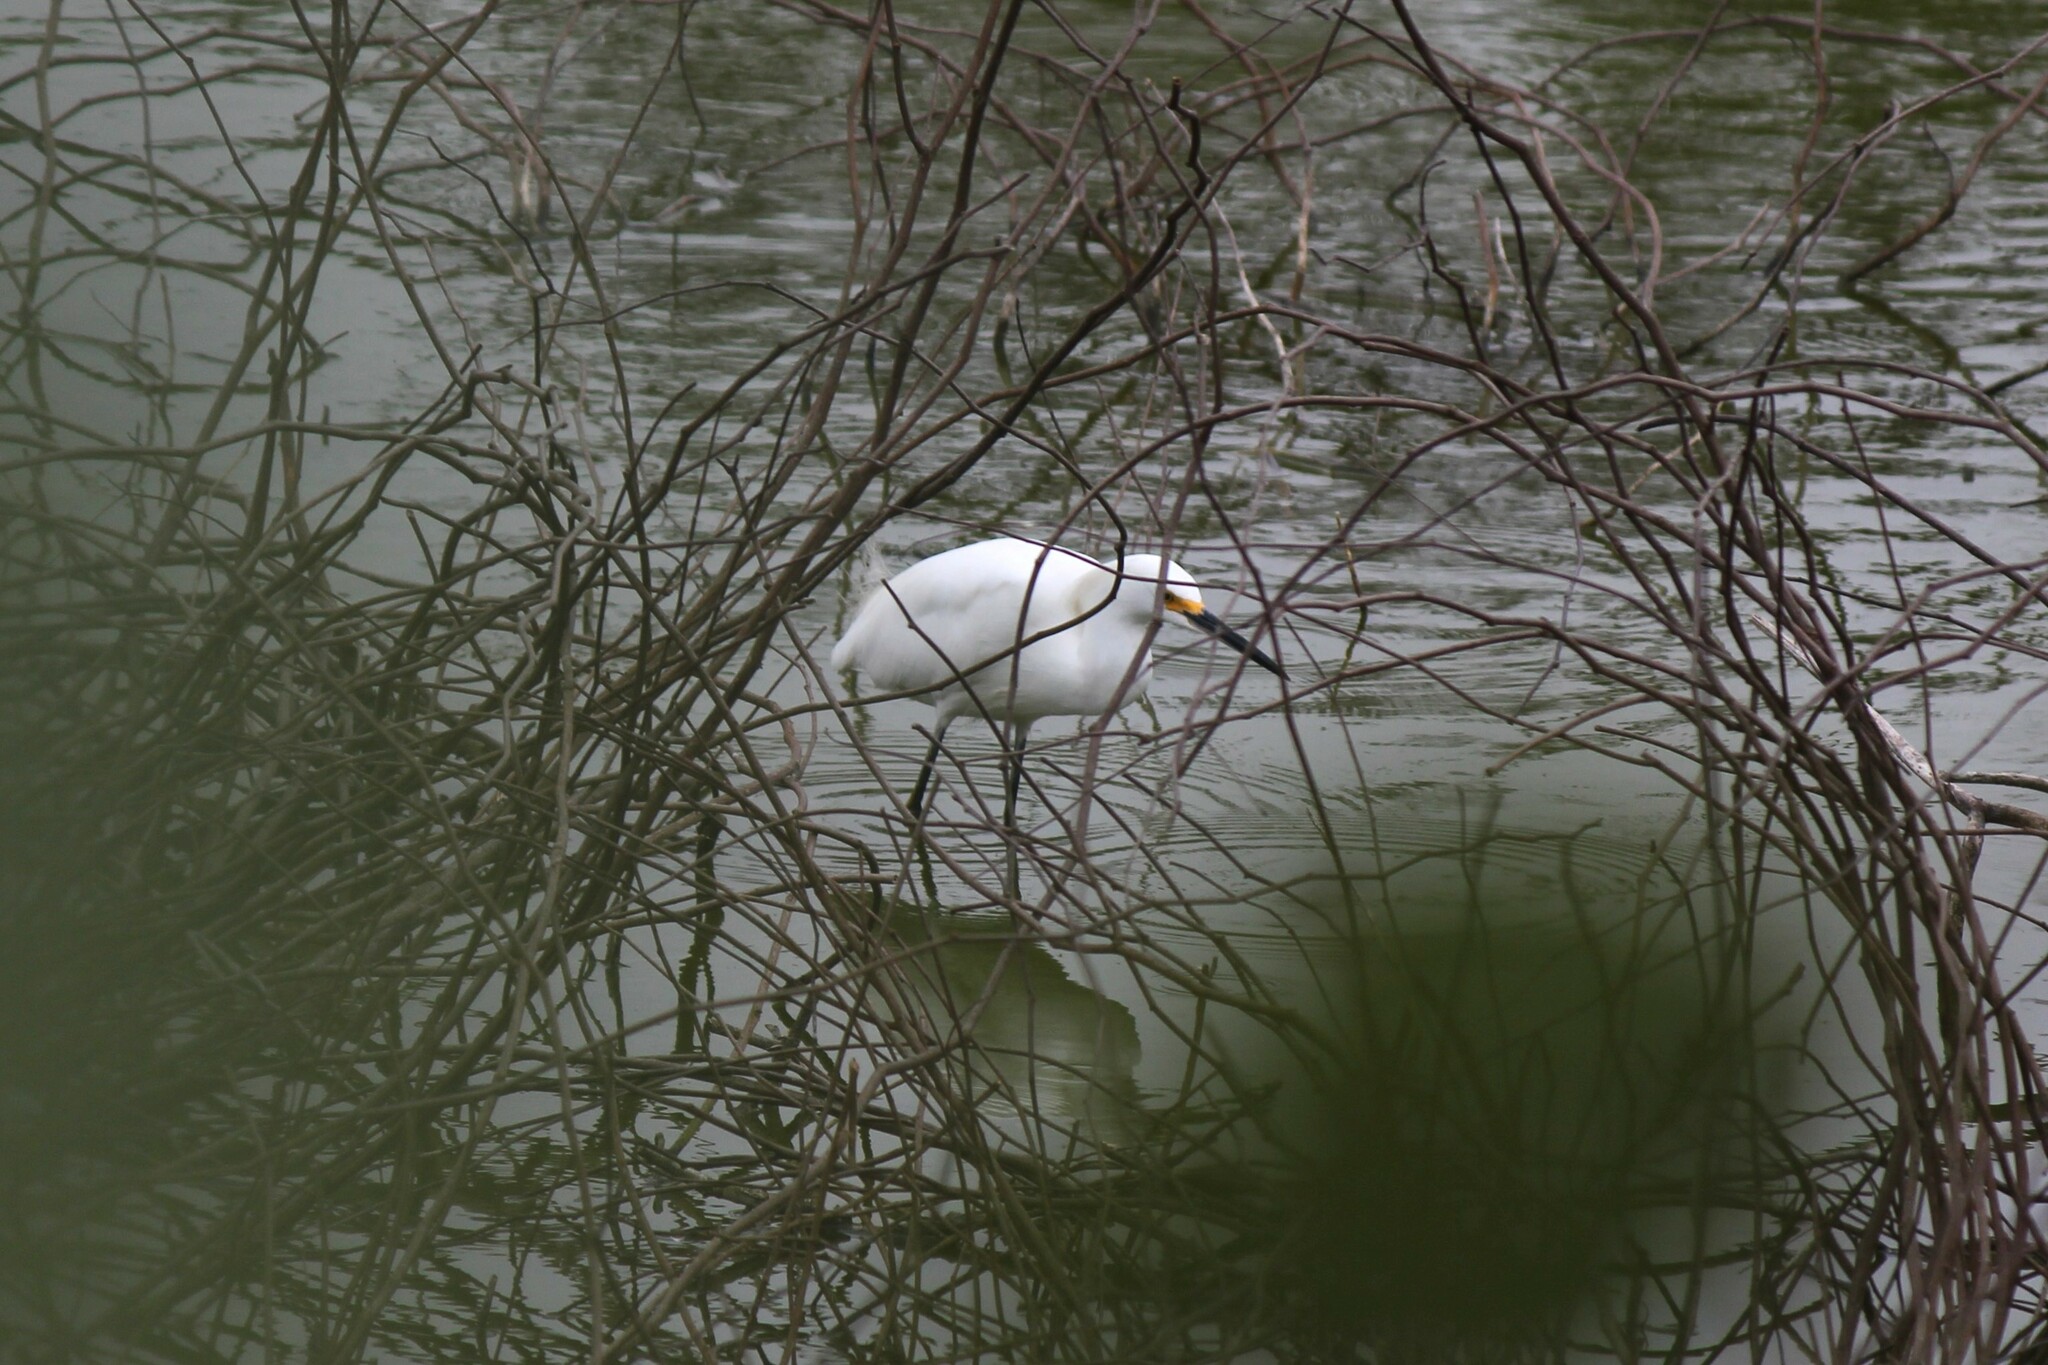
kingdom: Animalia
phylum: Chordata
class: Aves
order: Pelecaniformes
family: Ardeidae
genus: Egretta
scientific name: Egretta thula
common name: Snowy egret
